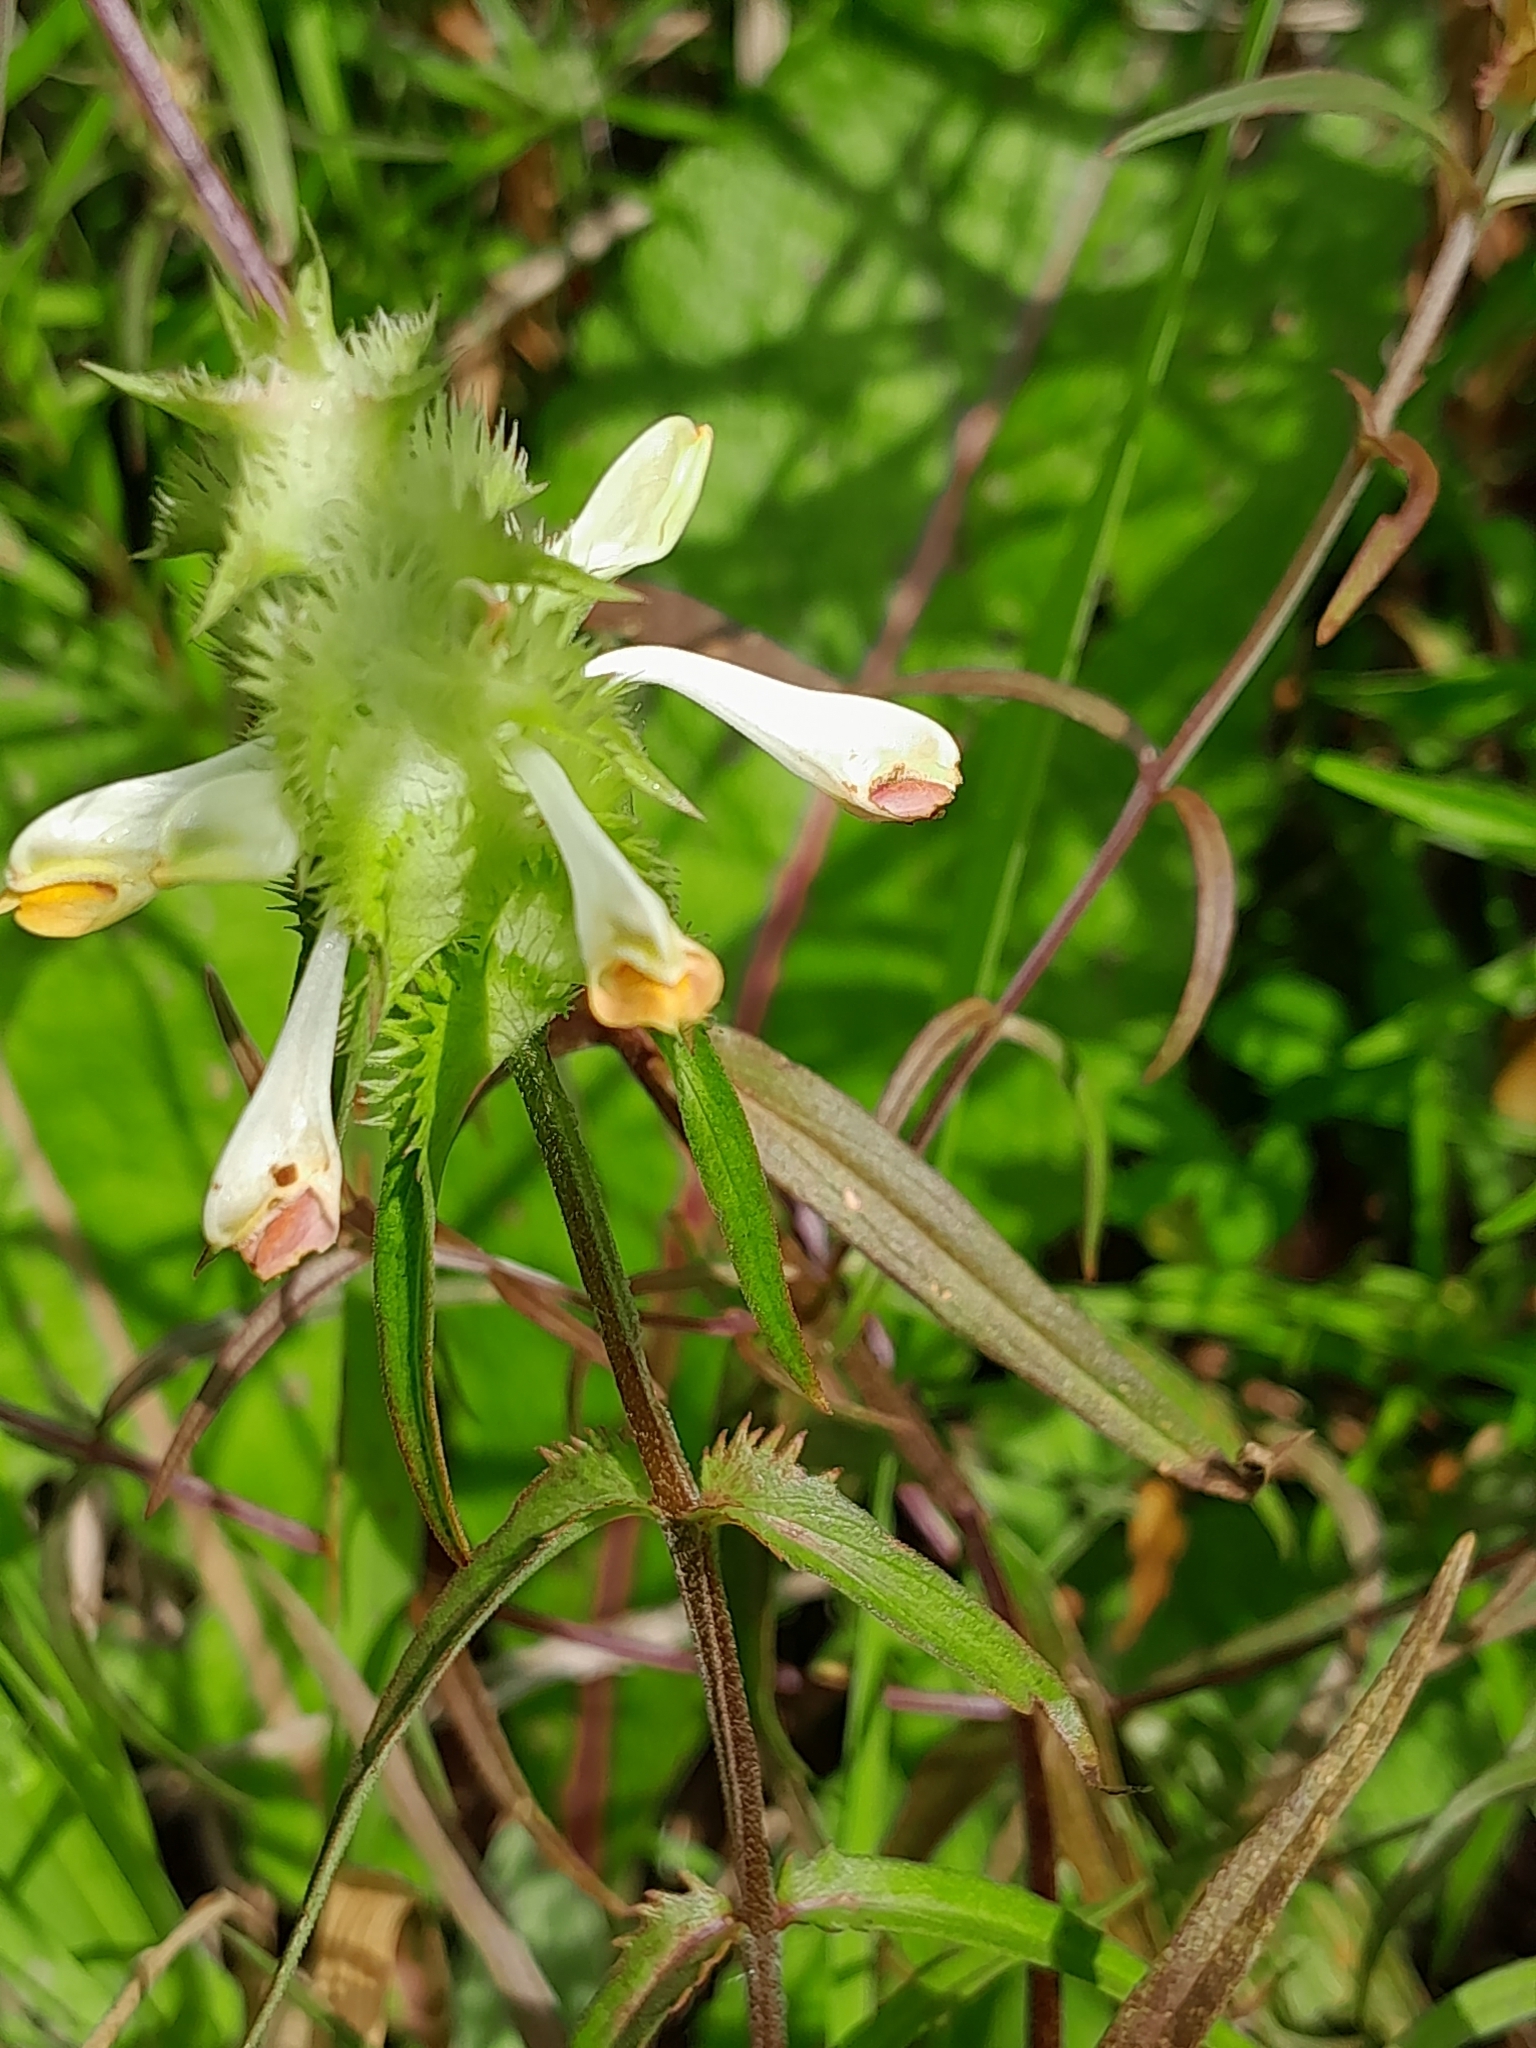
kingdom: Plantae
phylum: Tracheophyta
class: Magnoliopsida
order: Lamiales
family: Orobanchaceae
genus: Melampyrum
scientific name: Melampyrum cristatum
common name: Crested cow-wheat
